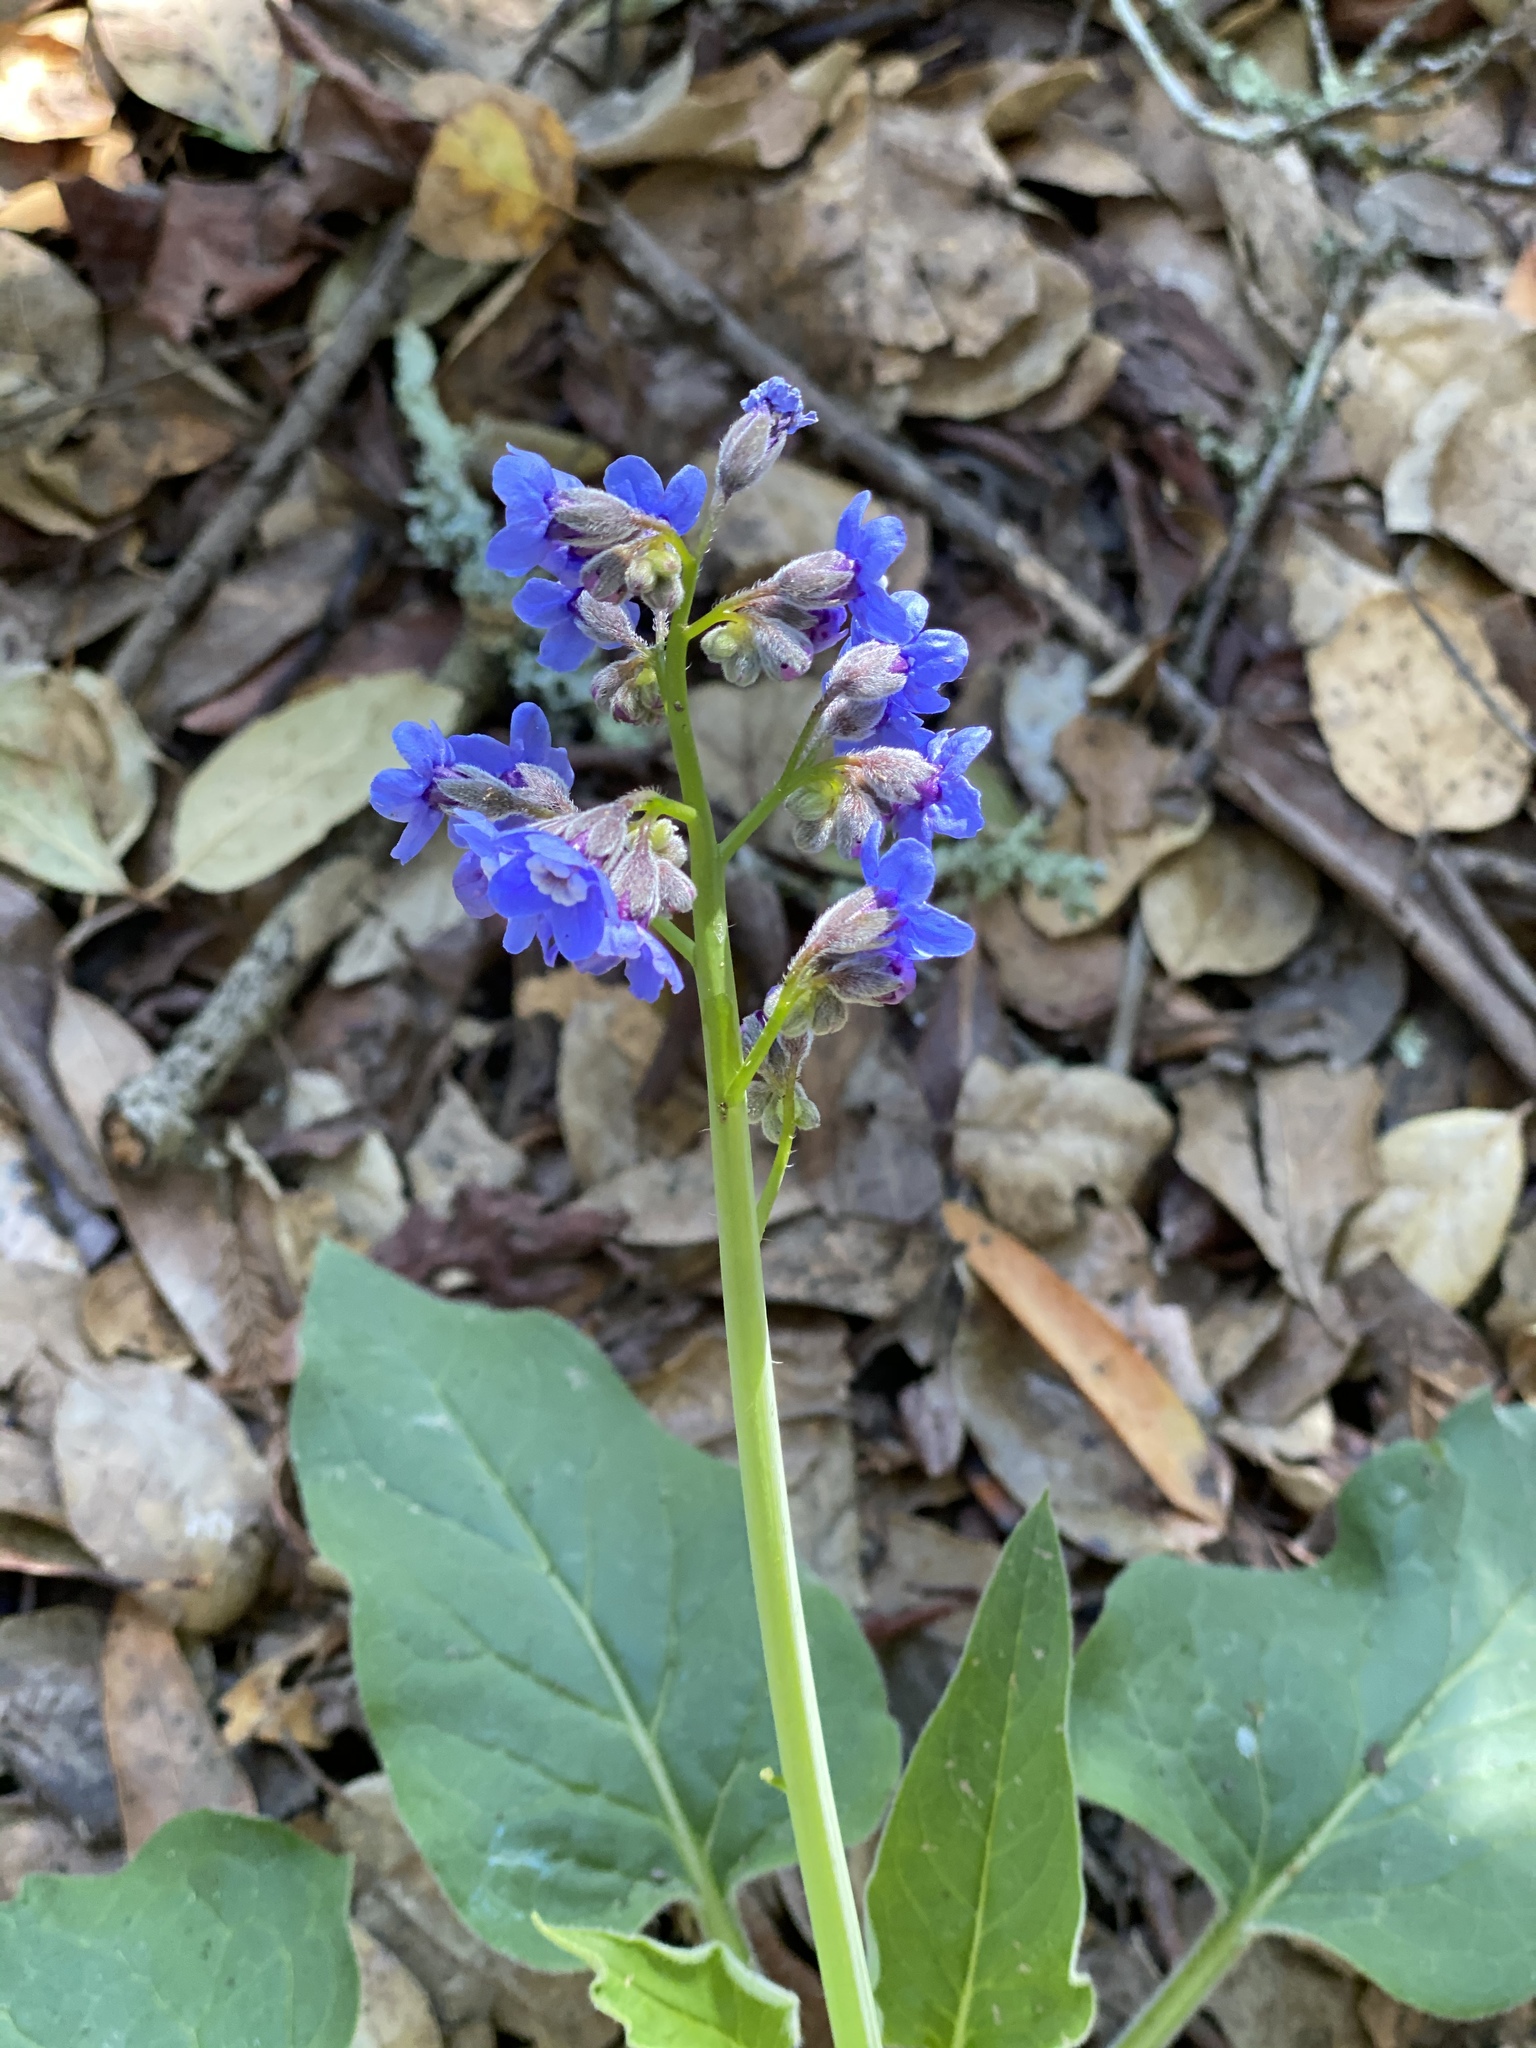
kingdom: Plantae
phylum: Tracheophyta
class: Magnoliopsida
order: Boraginales
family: Boraginaceae
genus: Adelinia
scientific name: Adelinia grande
